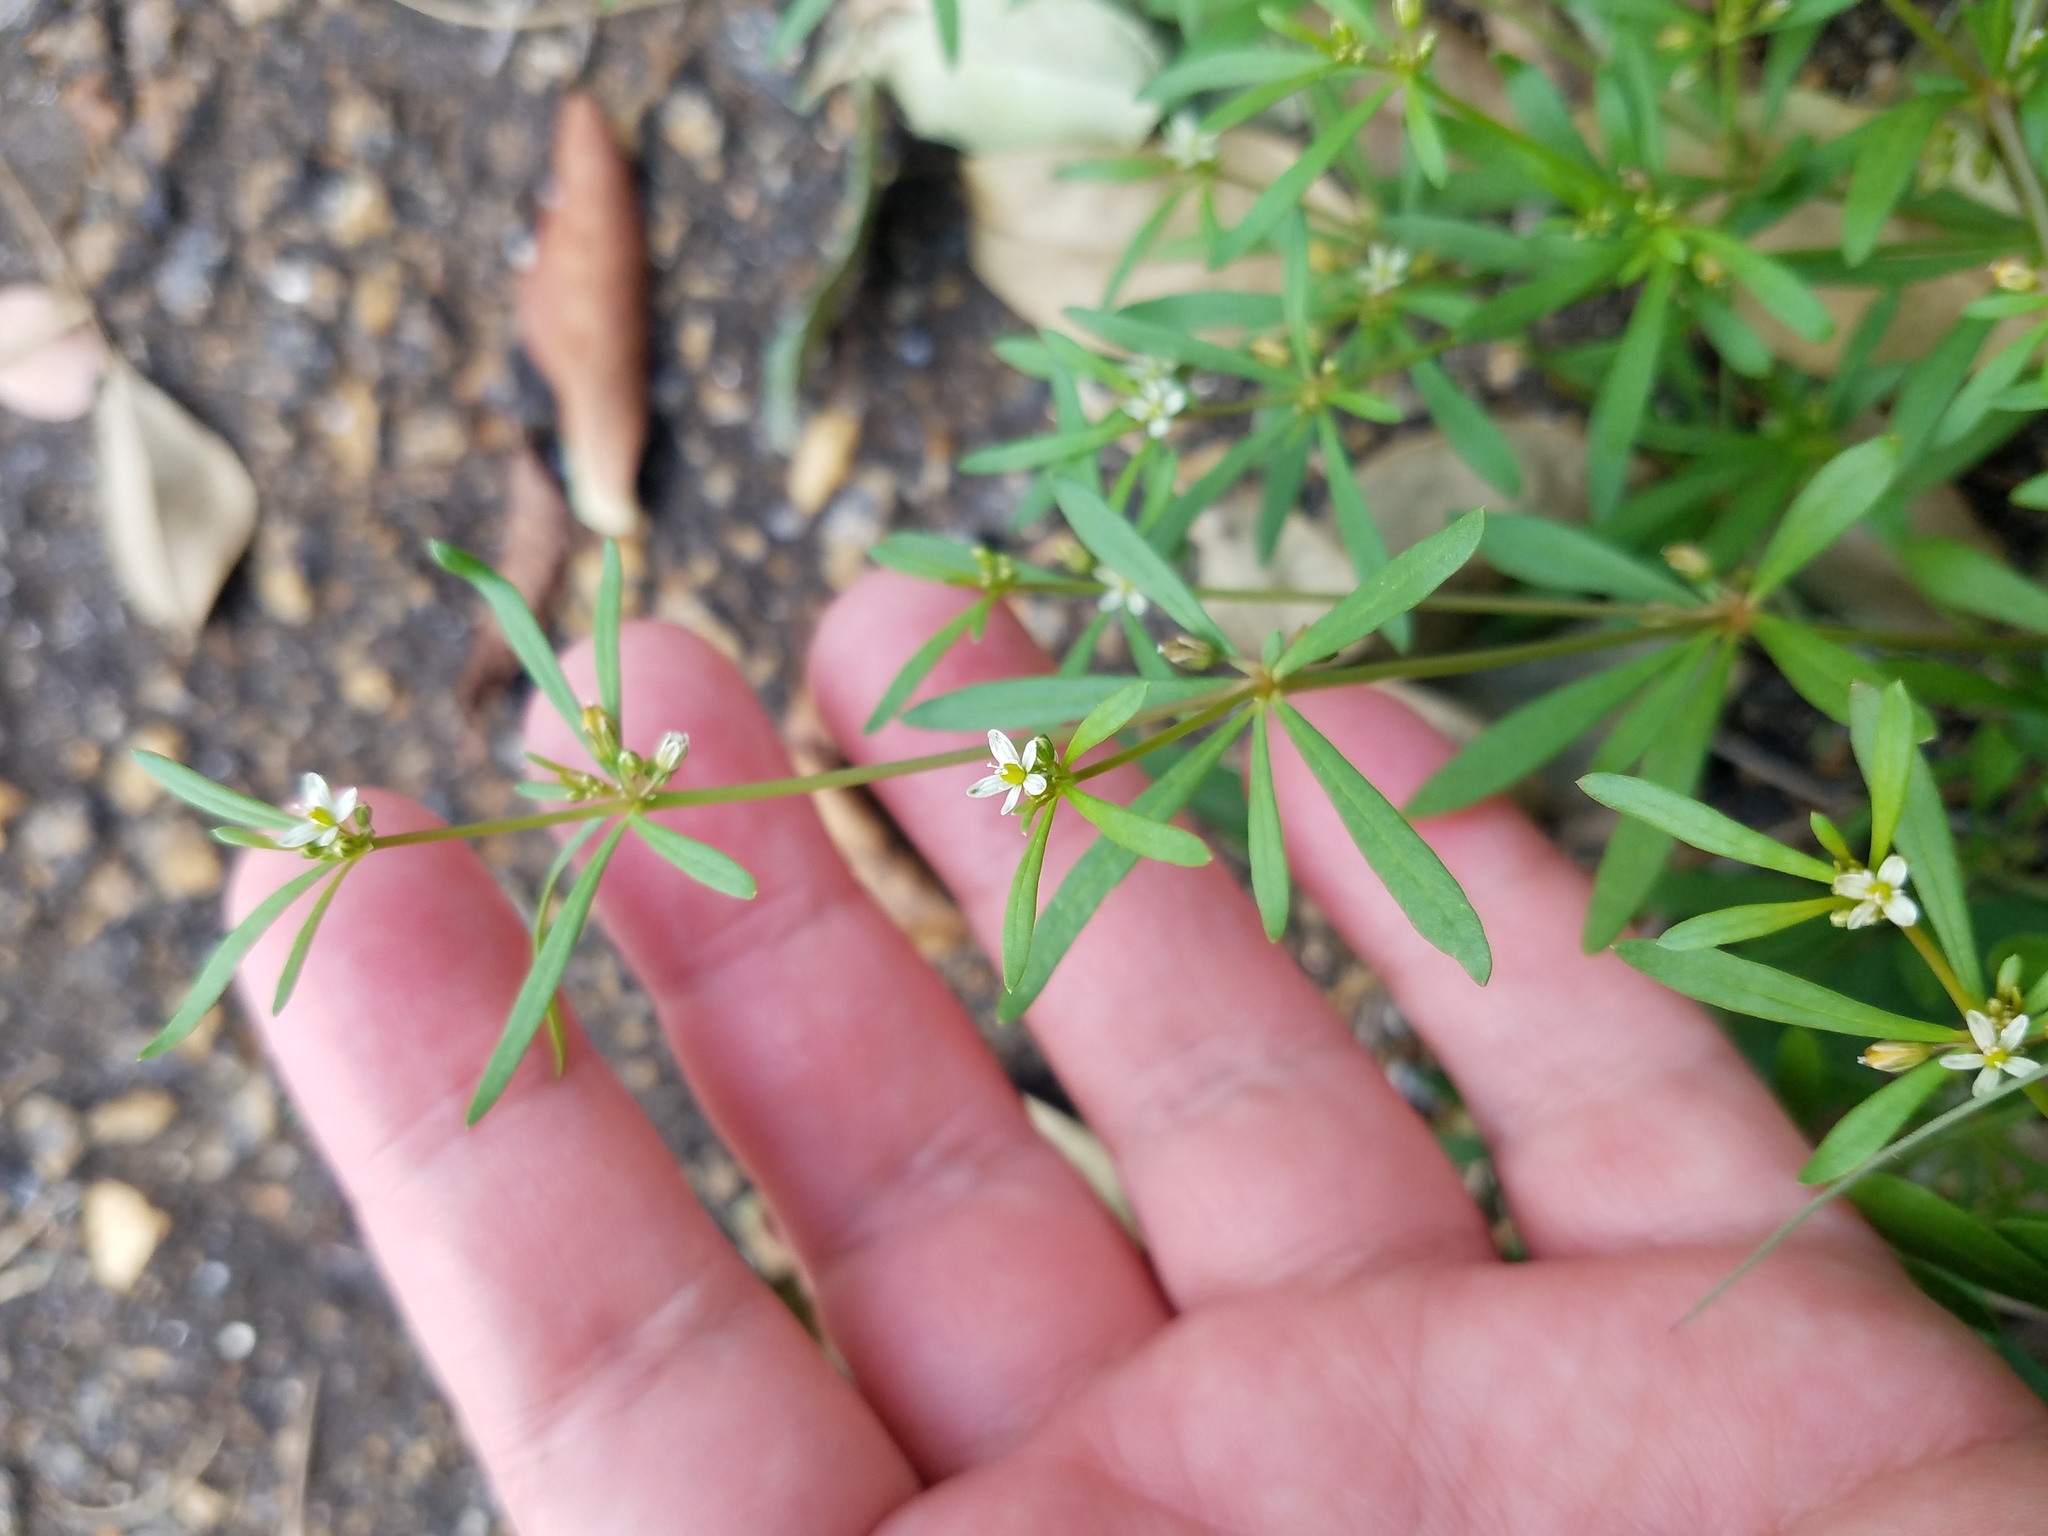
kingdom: Plantae
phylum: Tracheophyta
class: Magnoliopsida
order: Caryophyllales
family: Molluginaceae
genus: Mollugo
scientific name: Mollugo verticillata
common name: Green carpetweed
